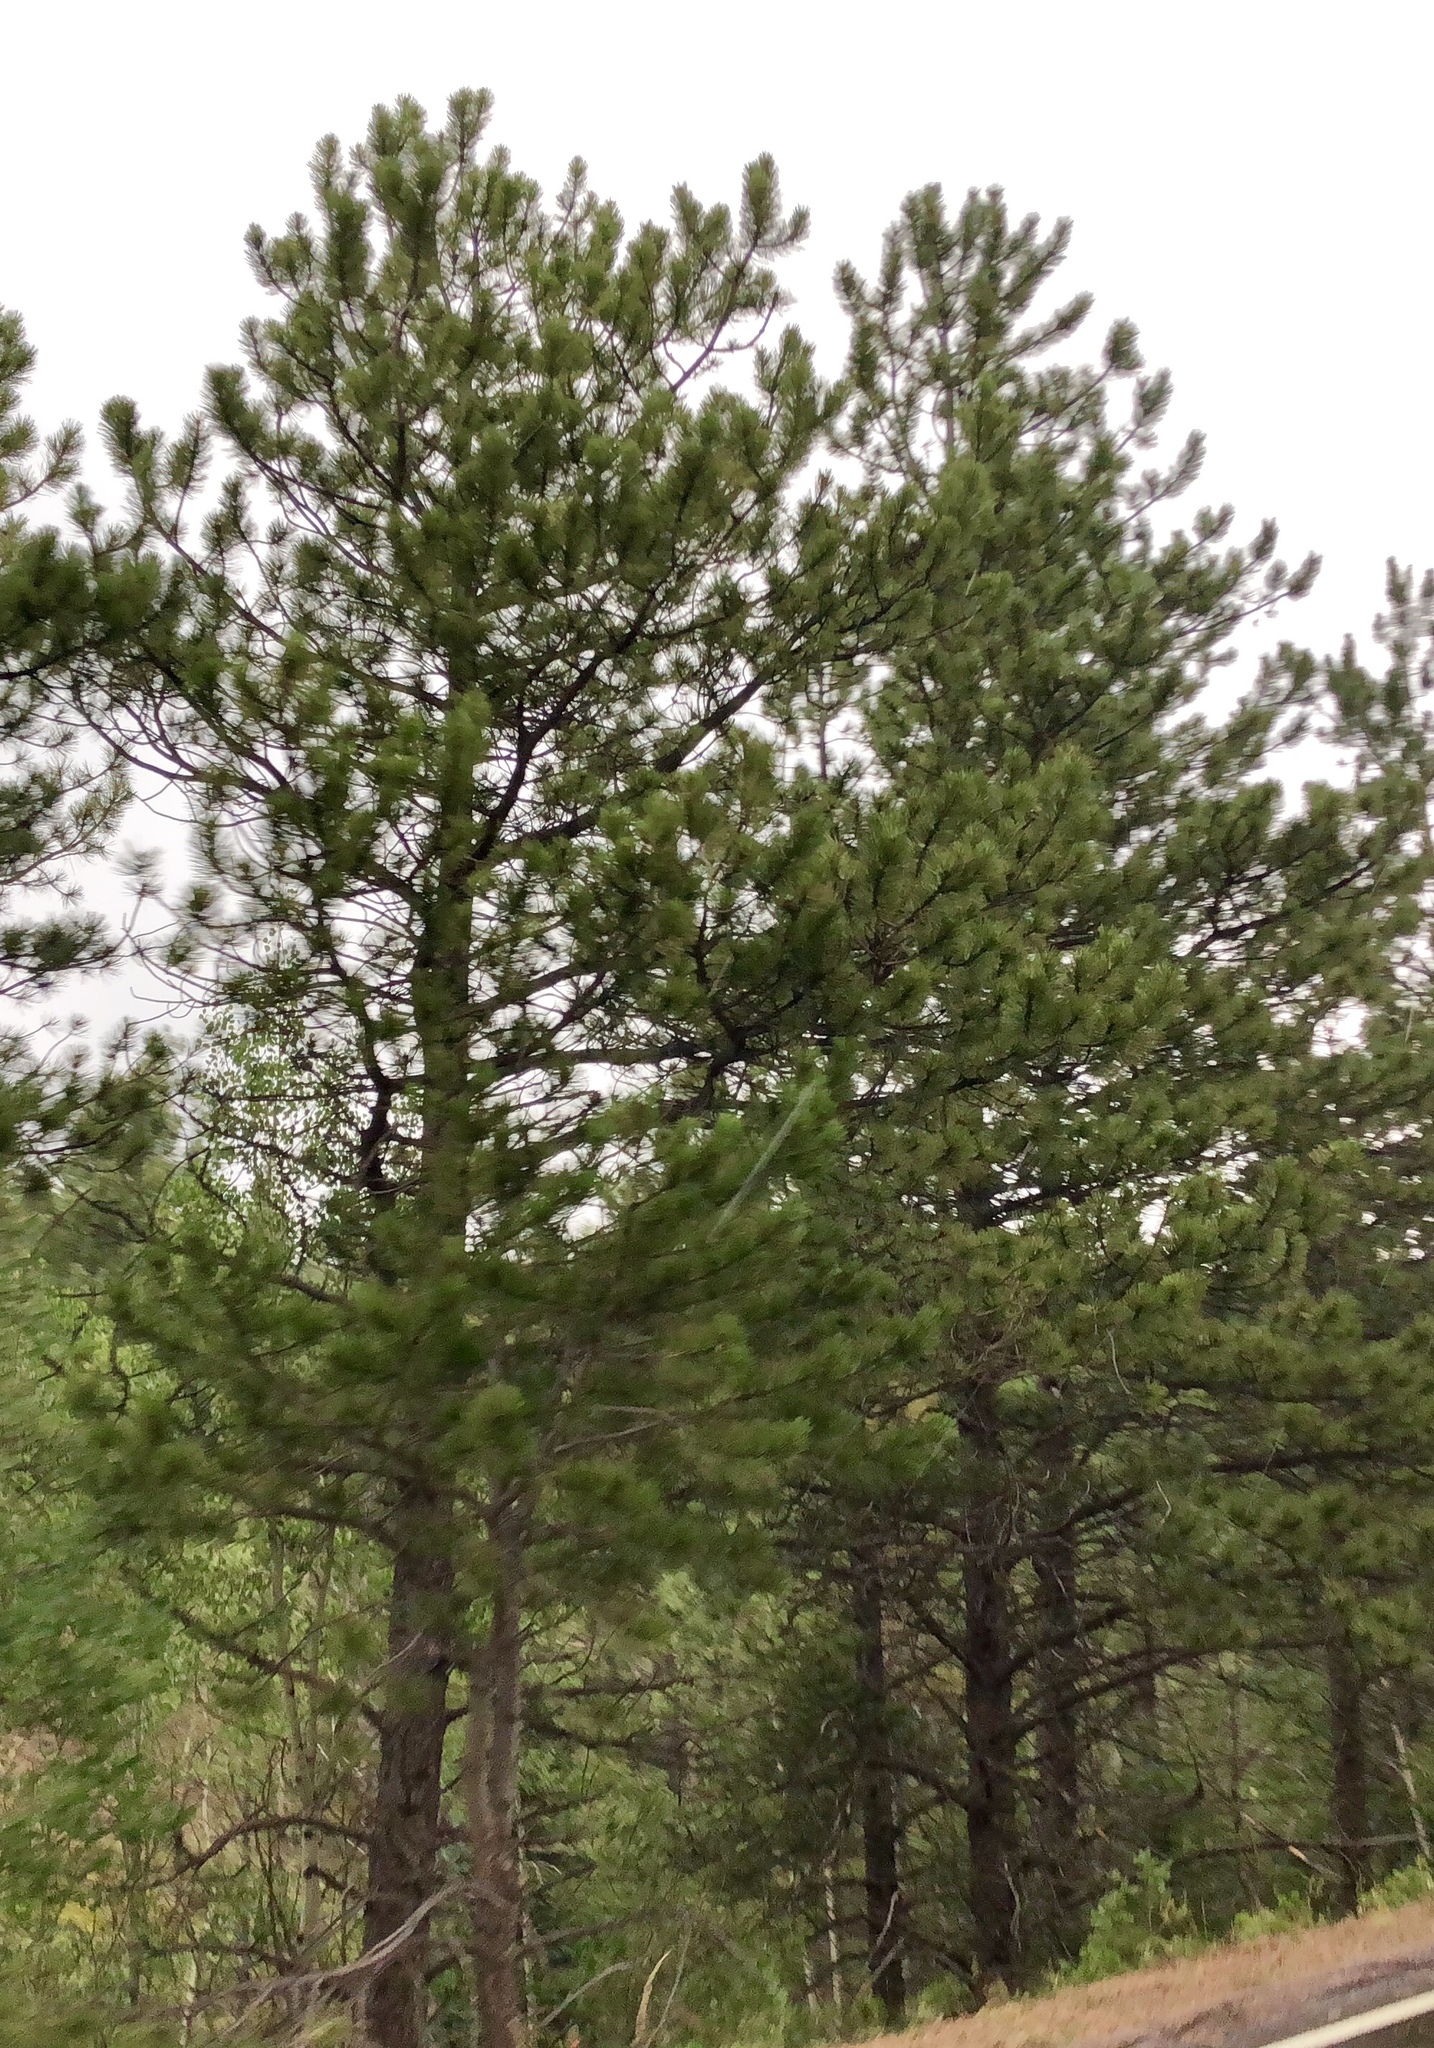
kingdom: Plantae
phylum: Tracheophyta
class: Pinopsida
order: Pinales
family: Pinaceae
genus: Pinus
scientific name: Pinus ponderosa
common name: Western yellow-pine
